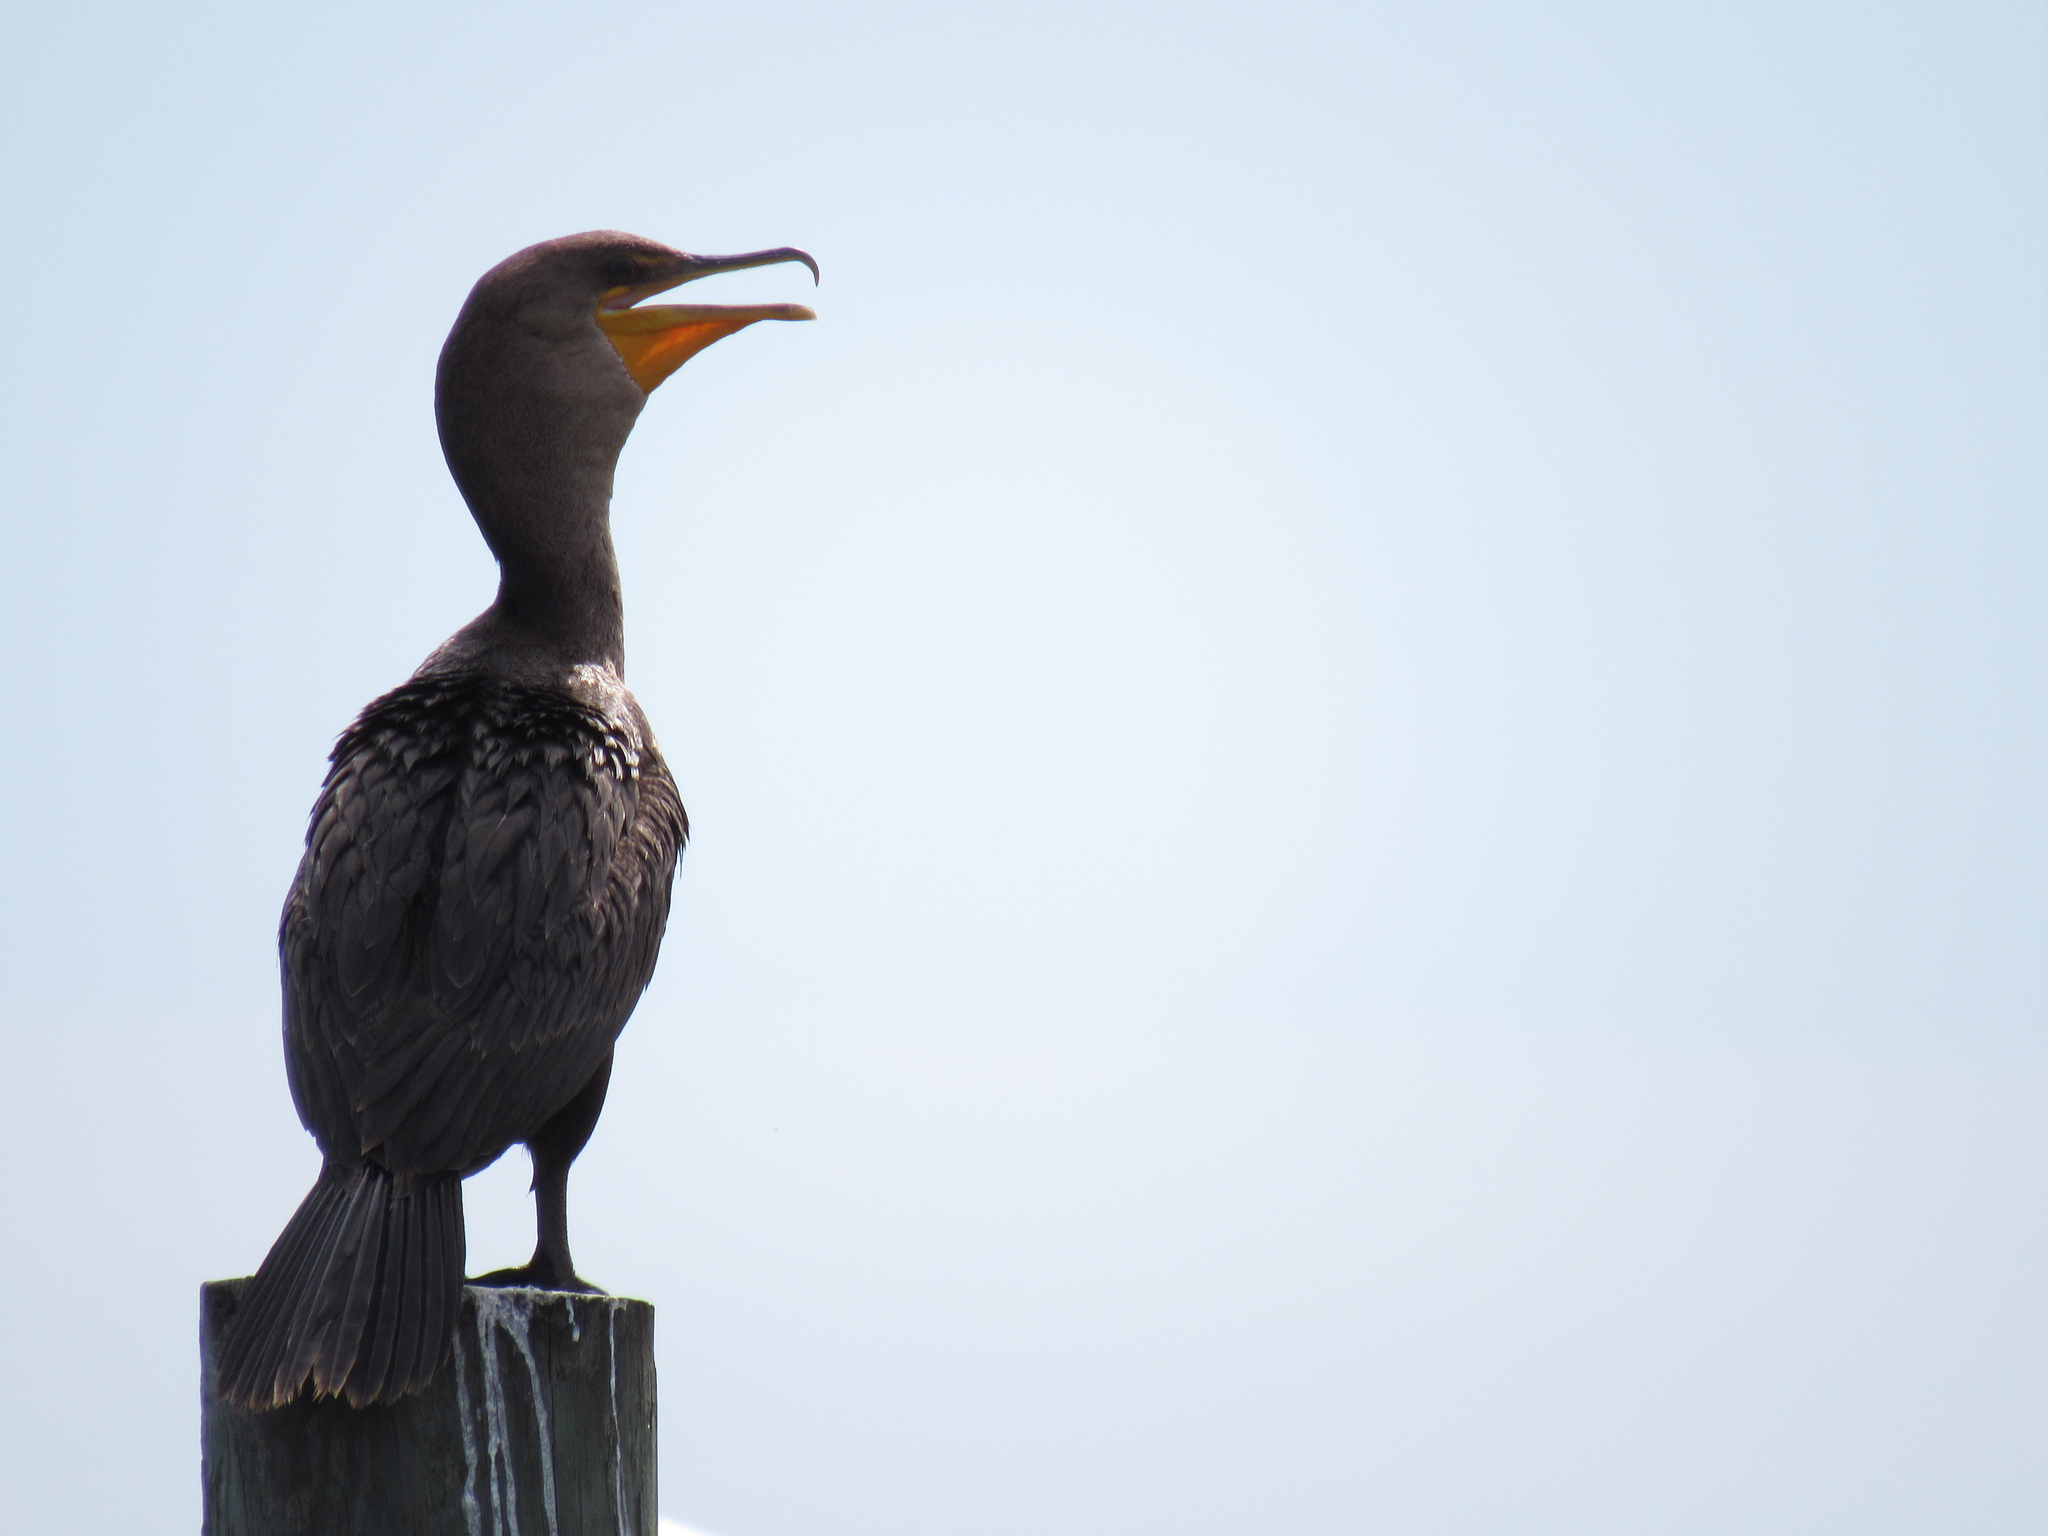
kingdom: Animalia
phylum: Chordata
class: Aves
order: Suliformes
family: Phalacrocoracidae
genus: Phalacrocorax
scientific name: Phalacrocorax auritus
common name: Double-crested cormorant
